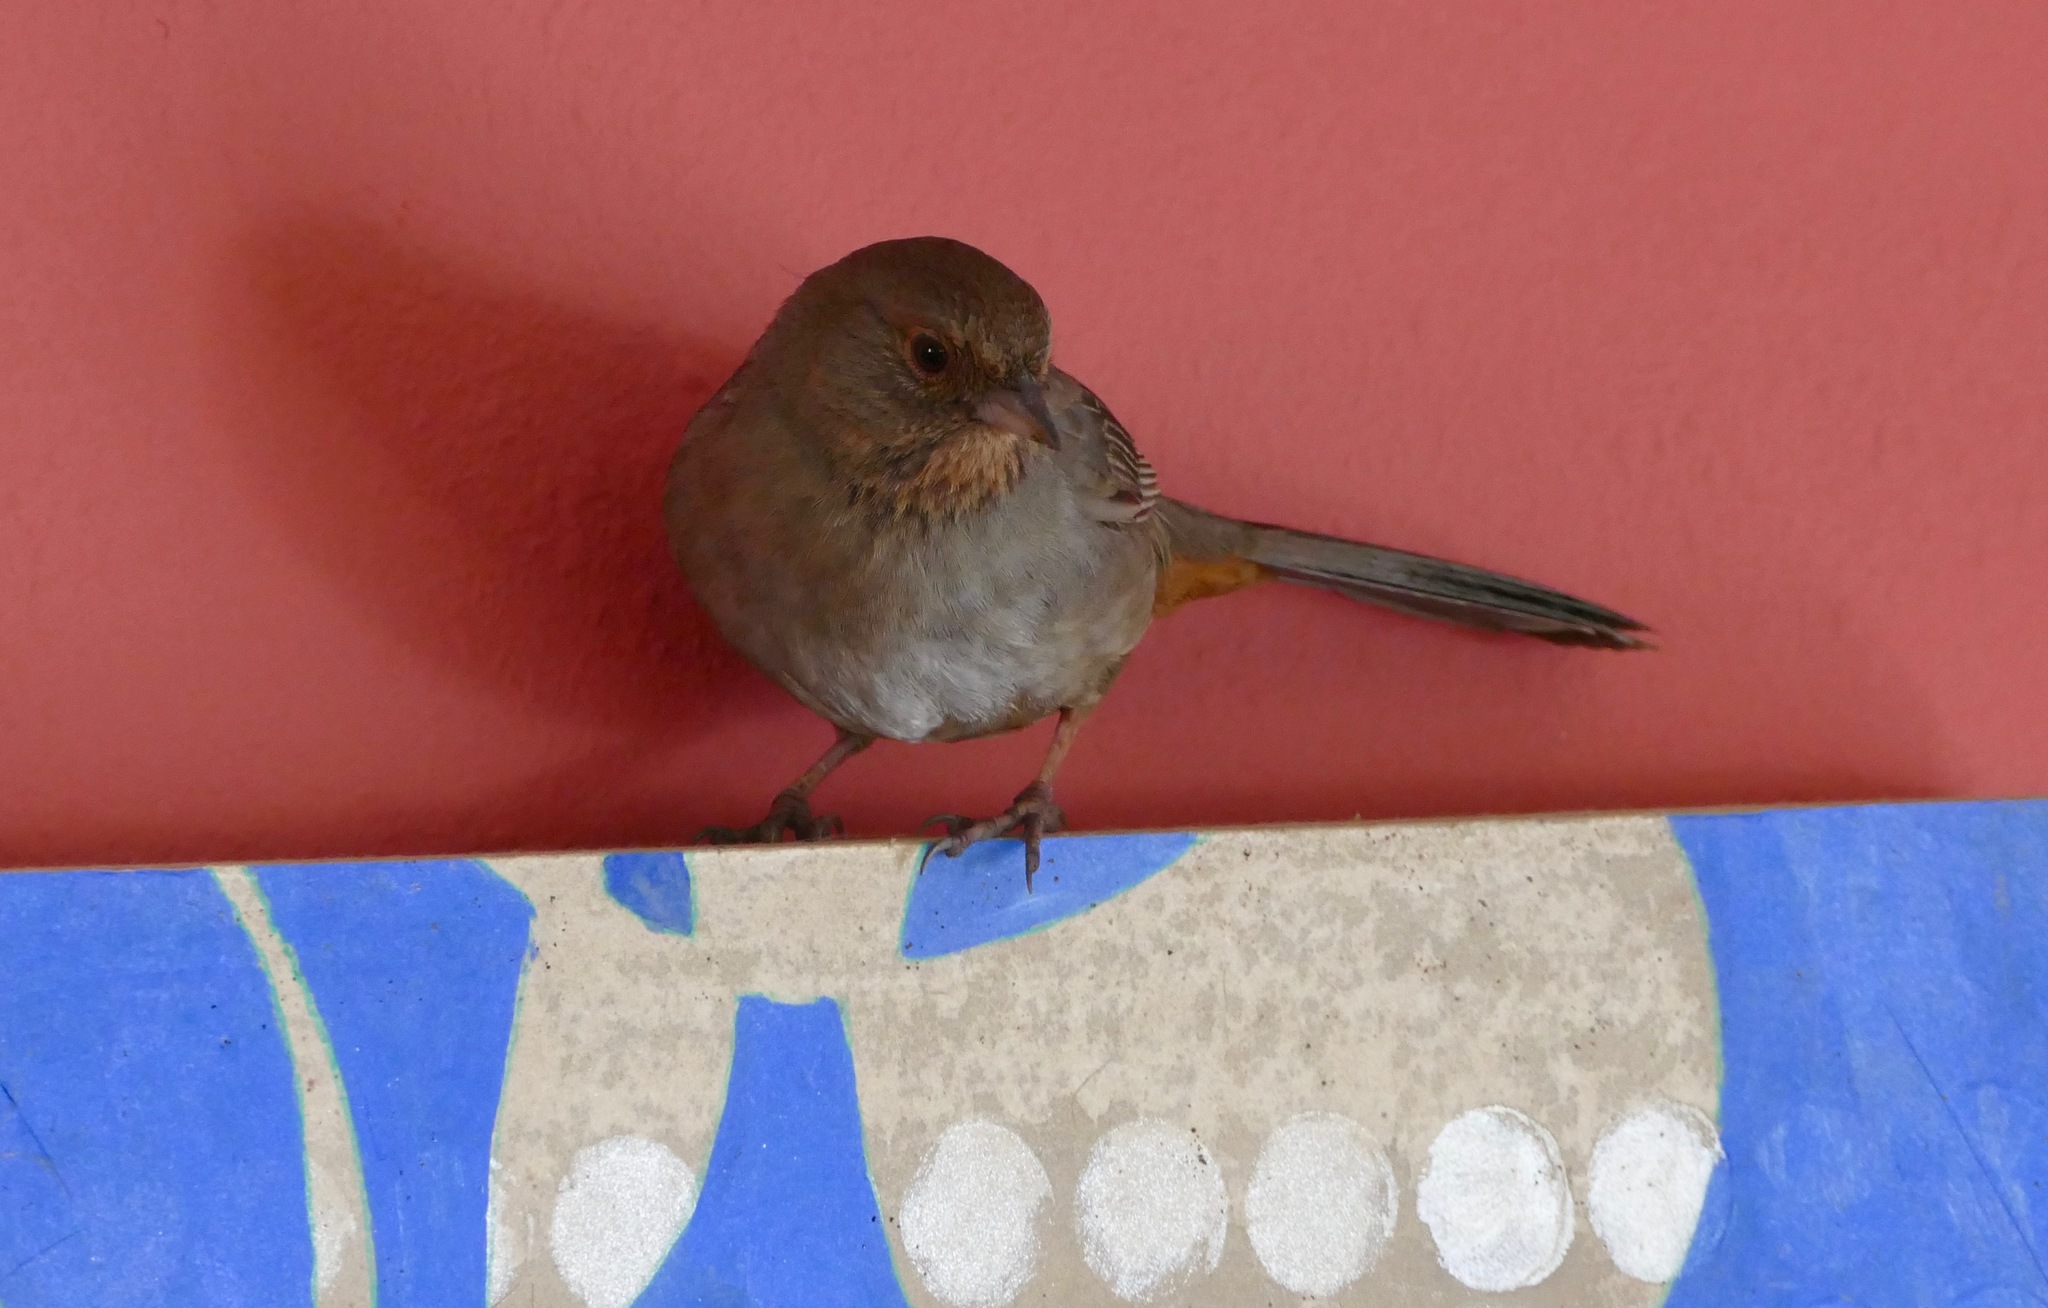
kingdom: Animalia
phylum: Chordata
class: Aves
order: Passeriformes
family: Passerellidae
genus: Melozone
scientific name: Melozone crissalis
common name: California towhee
